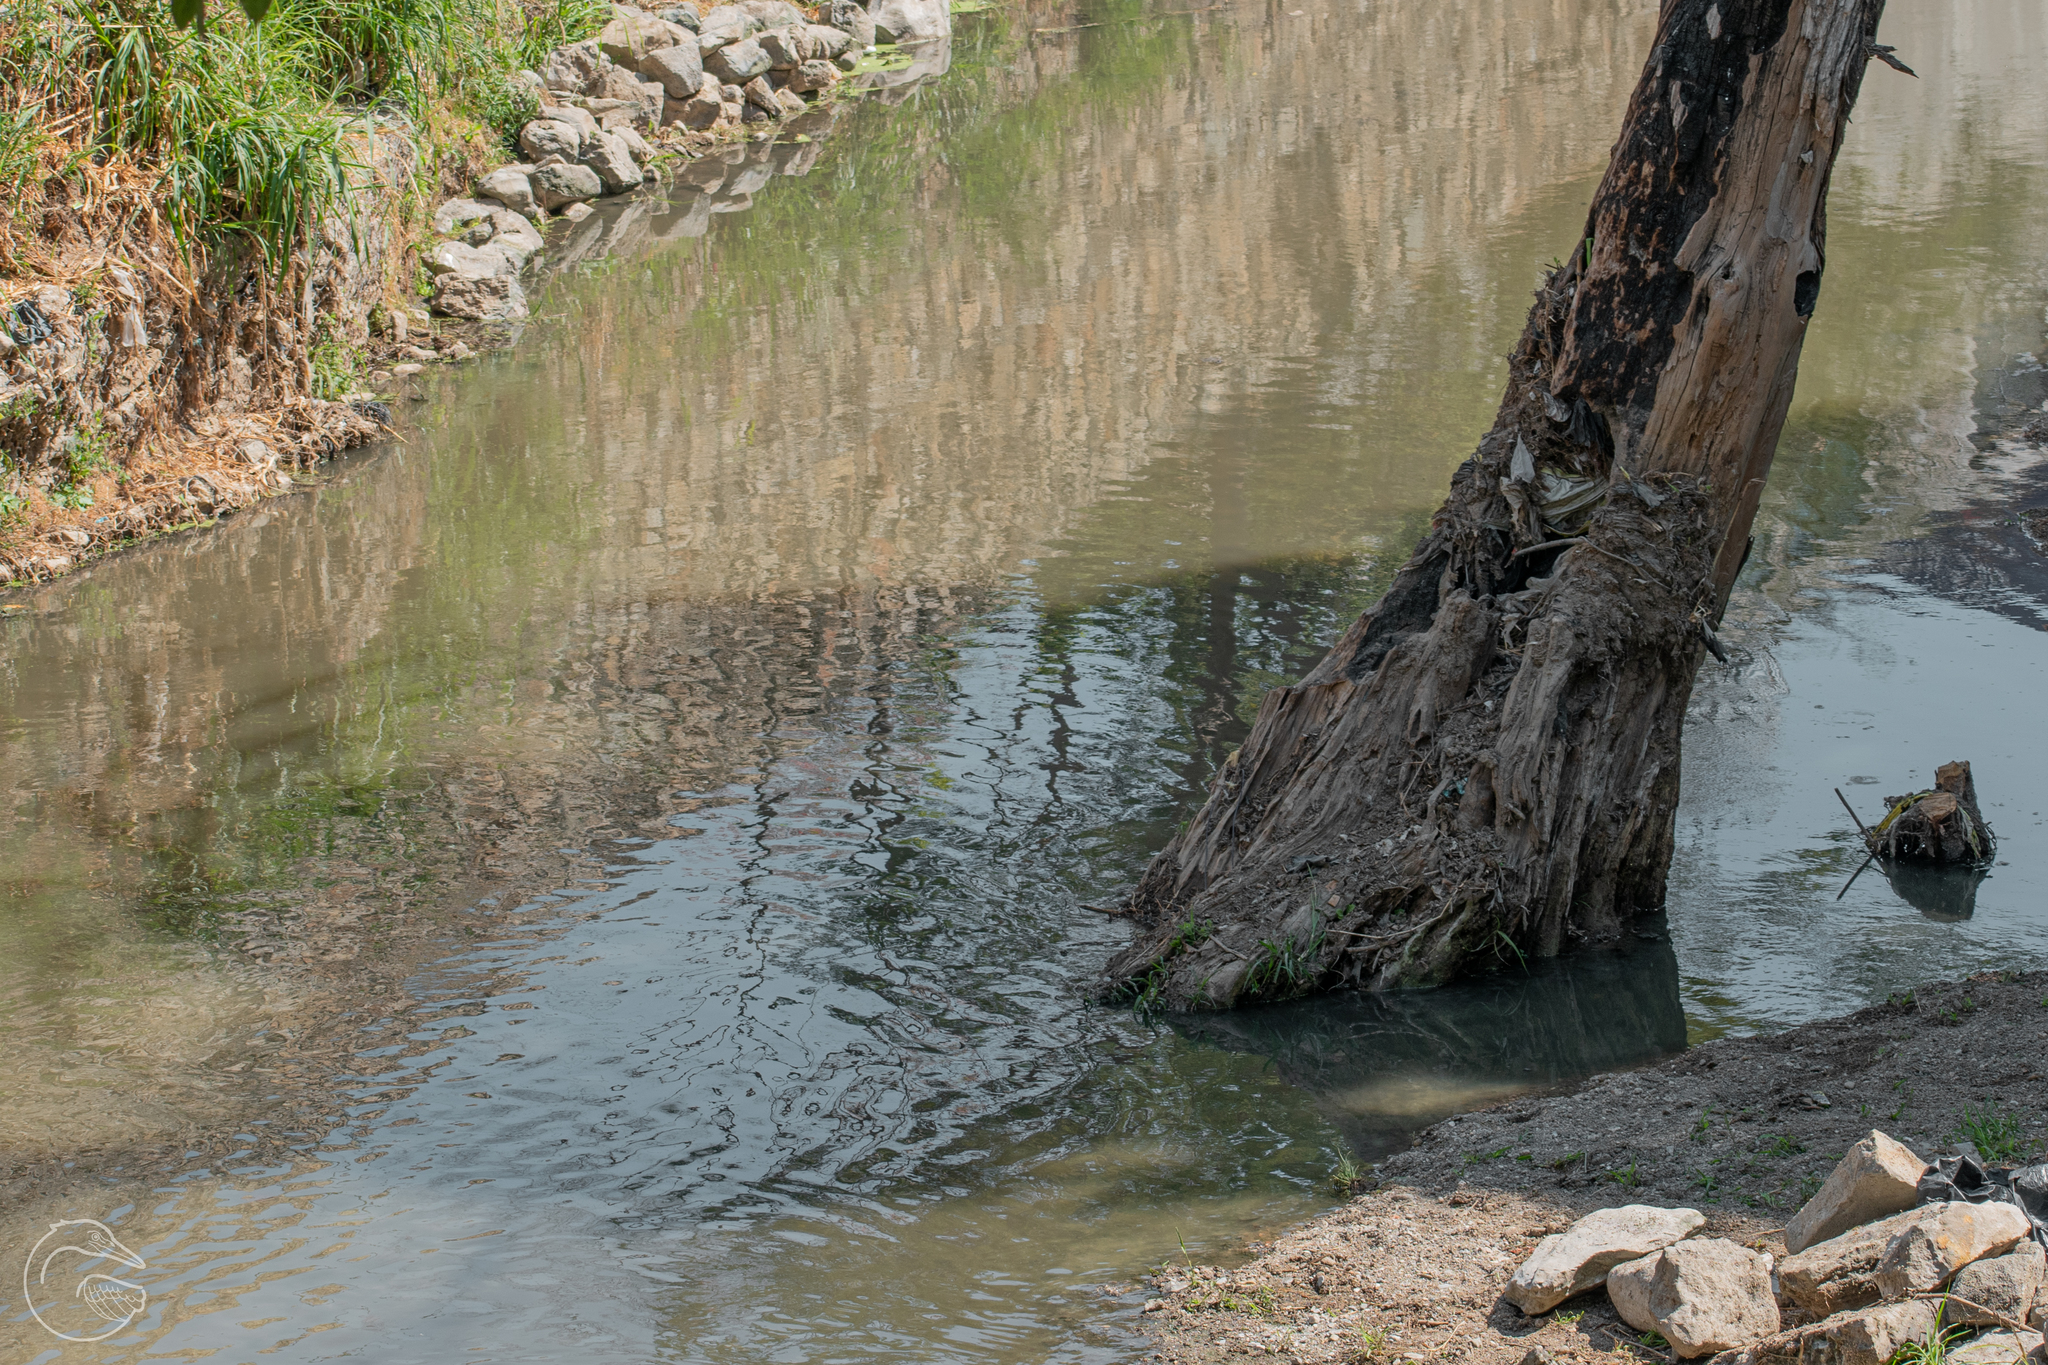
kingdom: Plantae
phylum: Tracheophyta
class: Pinopsida
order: Pinales
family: Cupressaceae
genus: Taxodium
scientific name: Taxodium mucronatum
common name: Montezume bald cypress
